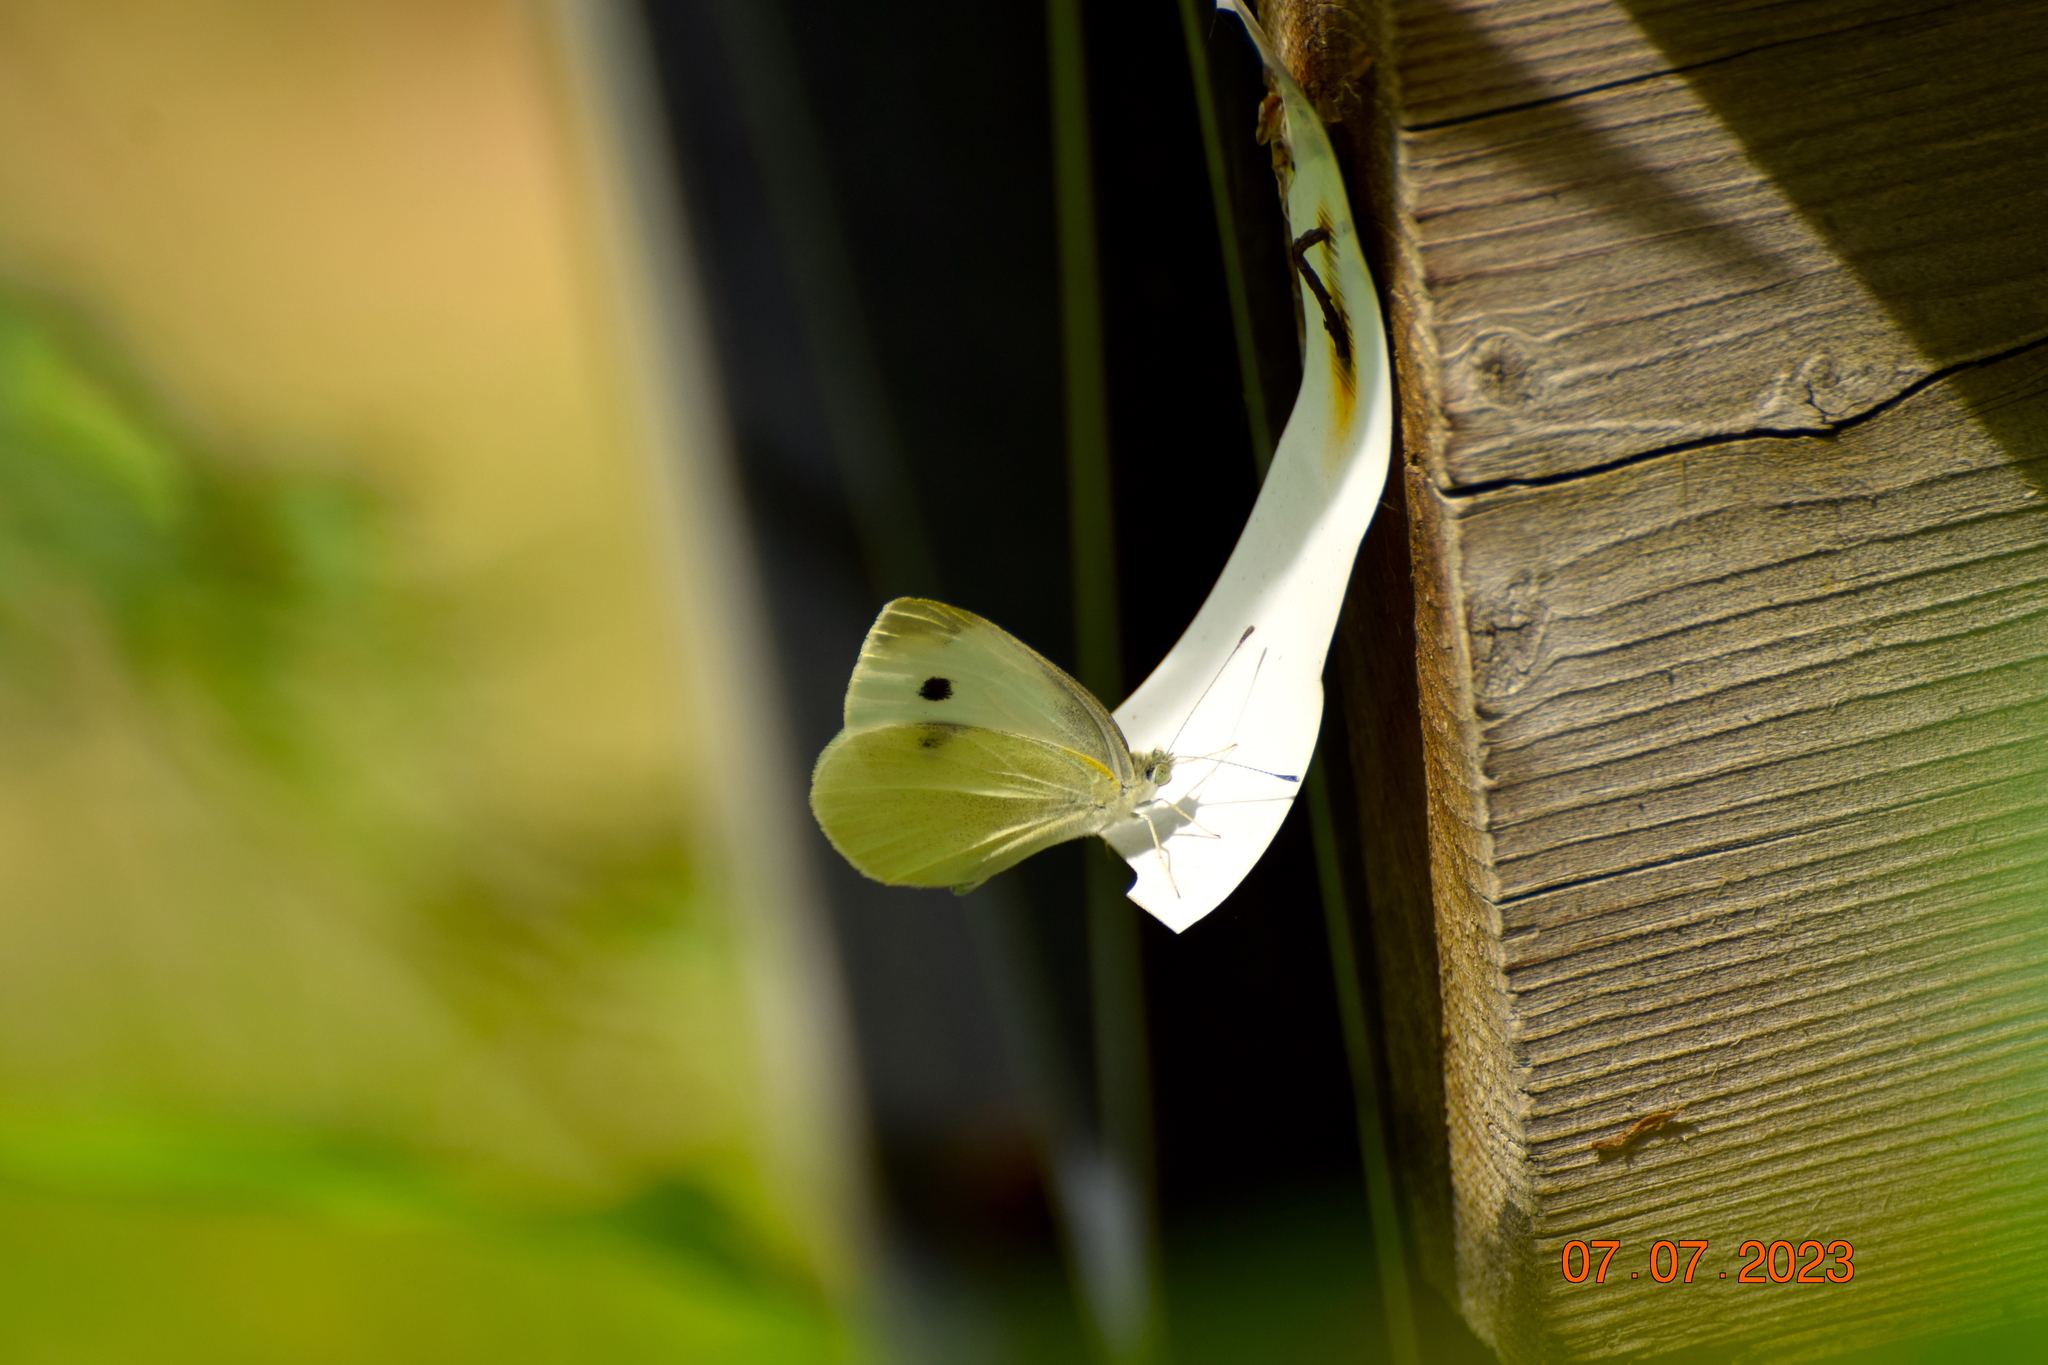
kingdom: Animalia
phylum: Arthropoda
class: Insecta
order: Lepidoptera
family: Pieridae
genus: Pieris
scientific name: Pieris rapae
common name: Small white
